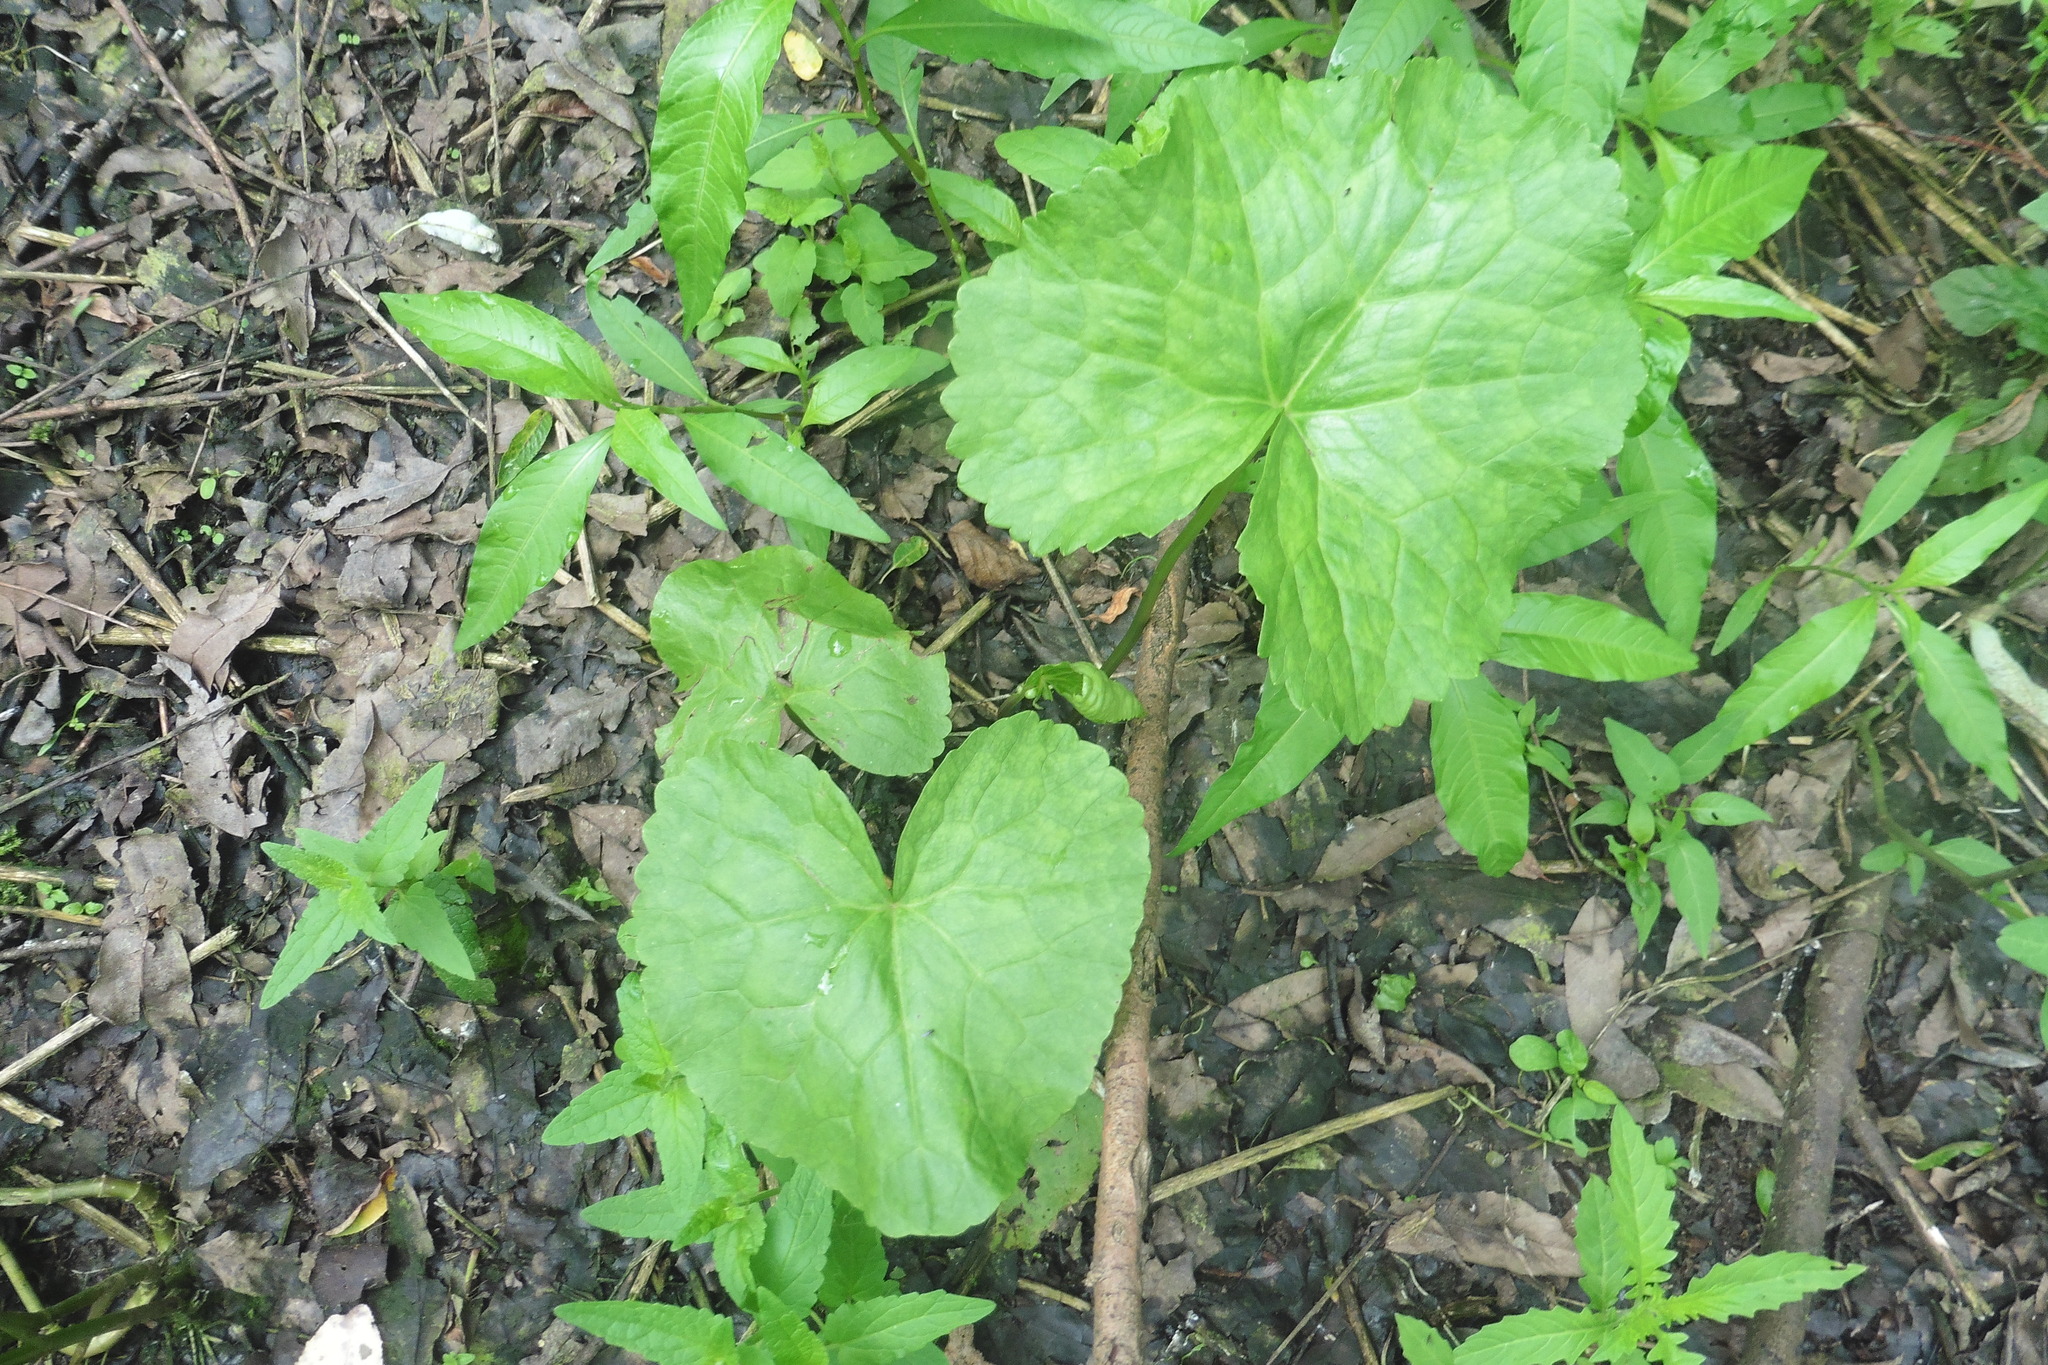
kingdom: Plantae
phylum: Tracheophyta
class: Magnoliopsida
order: Ranunculales
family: Ranunculaceae
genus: Caltha
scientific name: Caltha palustris
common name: Marsh marigold
